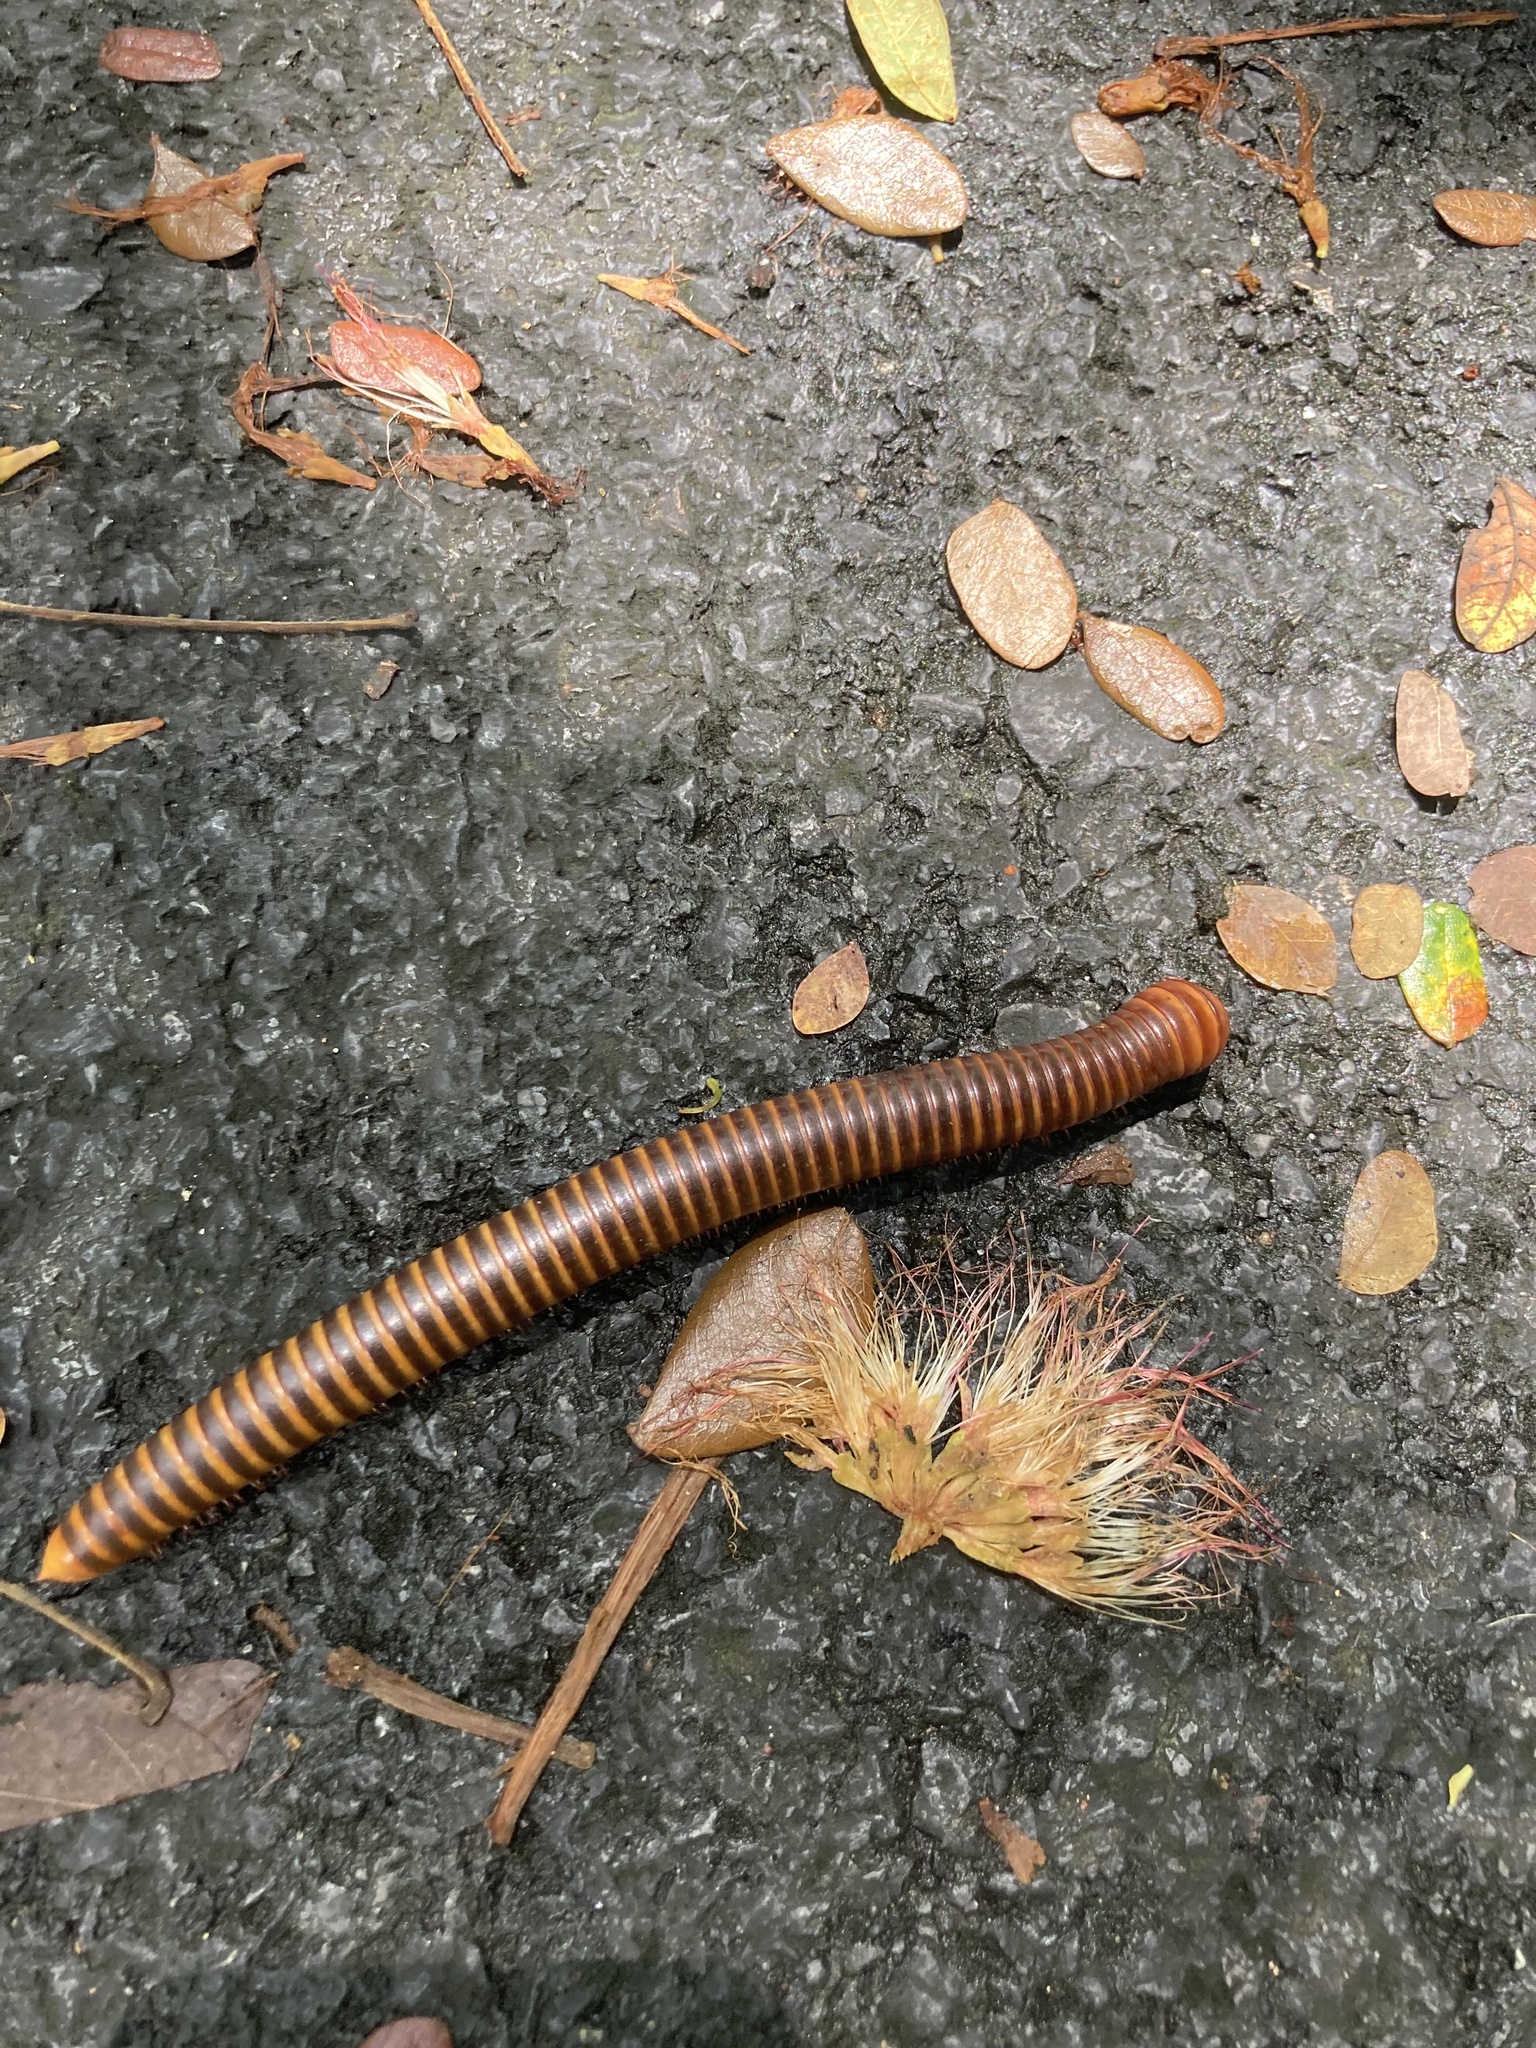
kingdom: Animalia
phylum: Arthropoda
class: Diplopoda
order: Spirostreptida
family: Harpagophoridae
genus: Thyropygus
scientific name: Thyropygus allevatus
